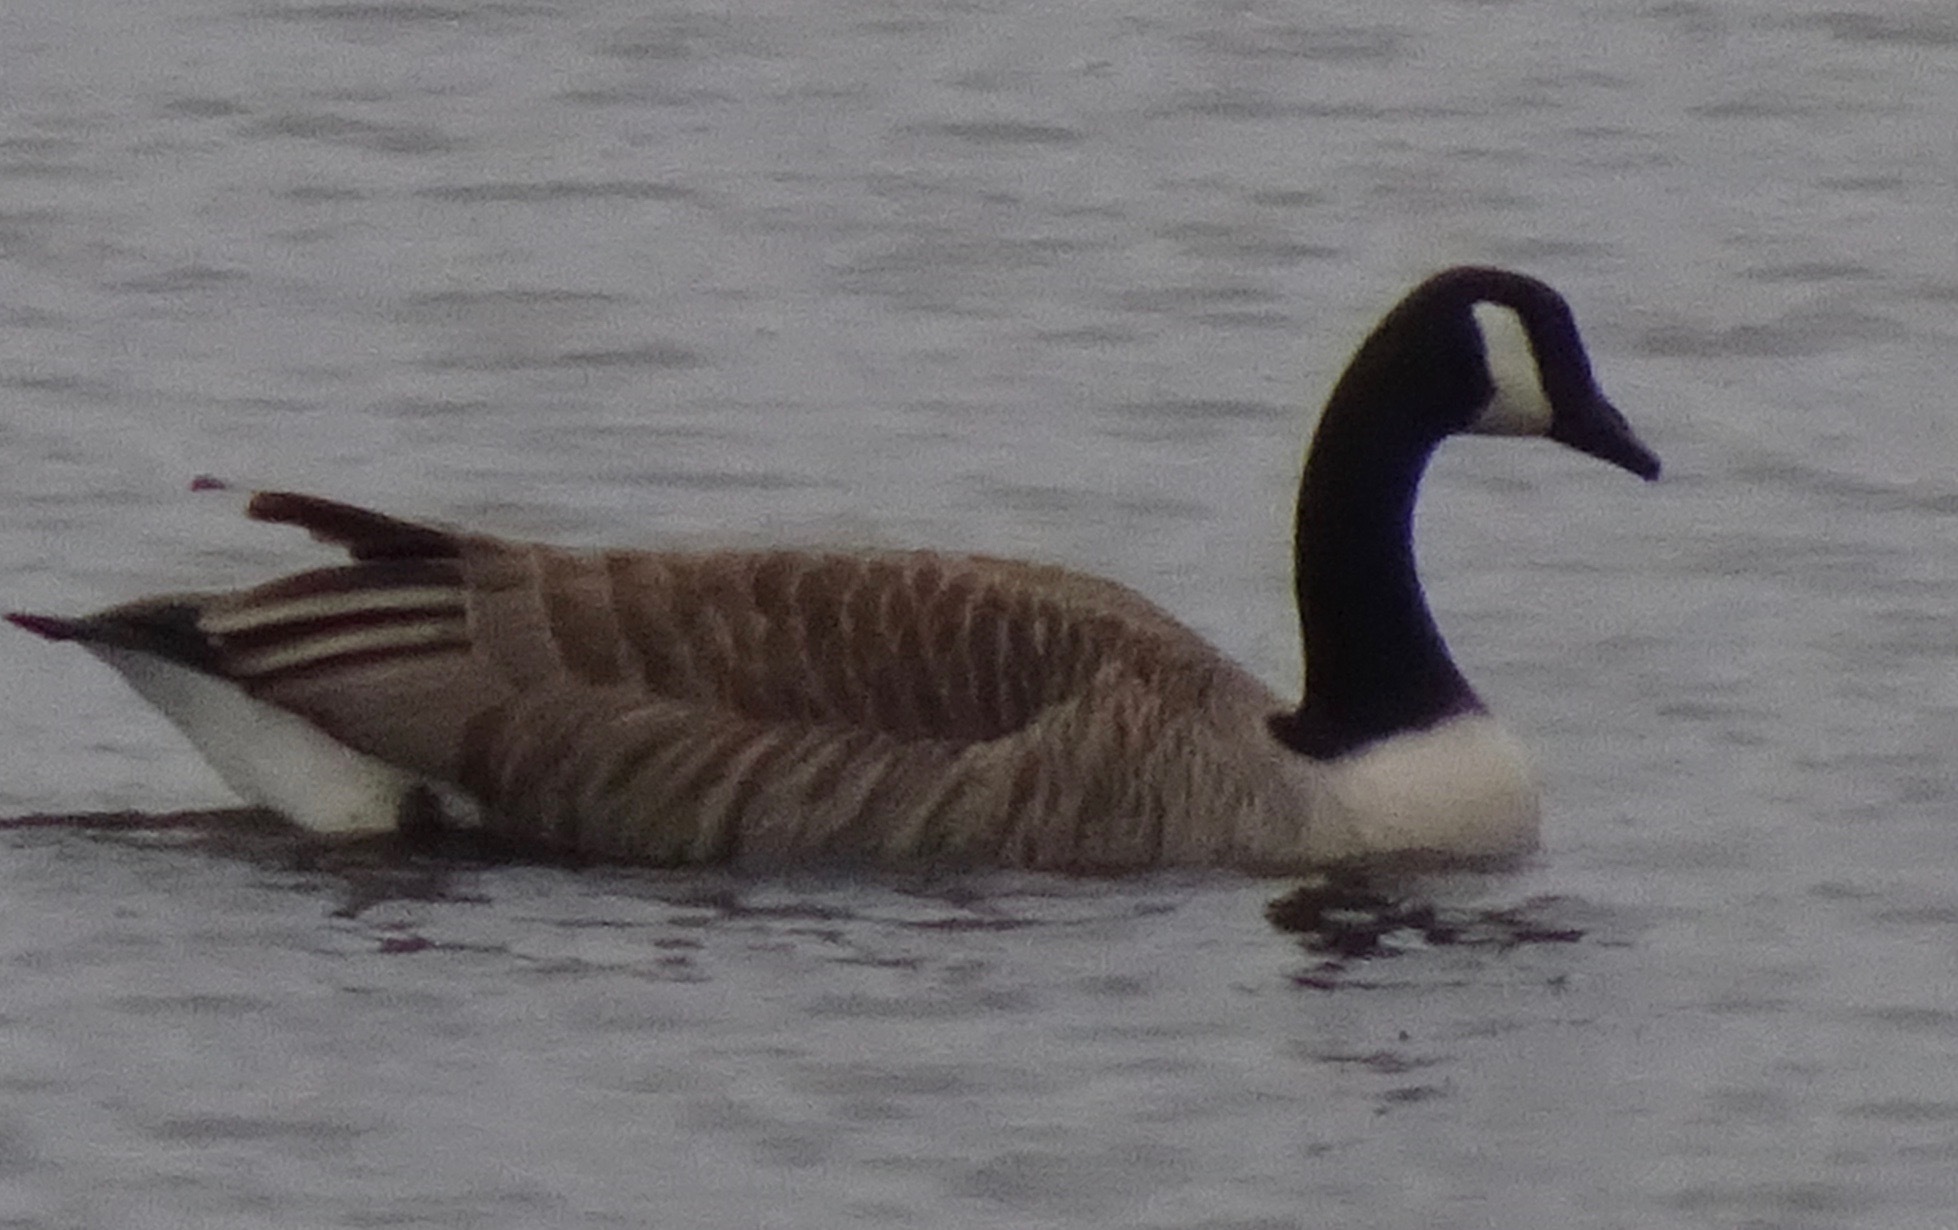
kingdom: Animalia
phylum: Chordata
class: Aves
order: Anseriformes
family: Anatidae
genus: Branta
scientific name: Branta canadensis
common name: Canada goose
